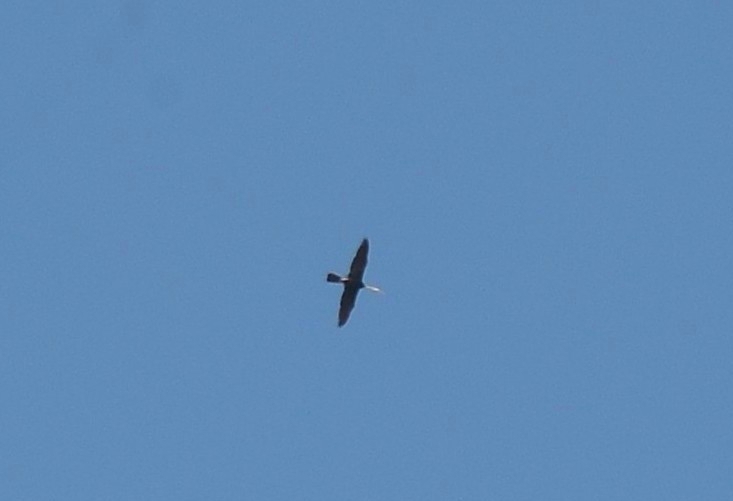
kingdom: Animalia
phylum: Chordata
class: Aves
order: Suliformes
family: Anhingidae
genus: Anhinga
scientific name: Anhinga melanogaster
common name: Oriental darter
